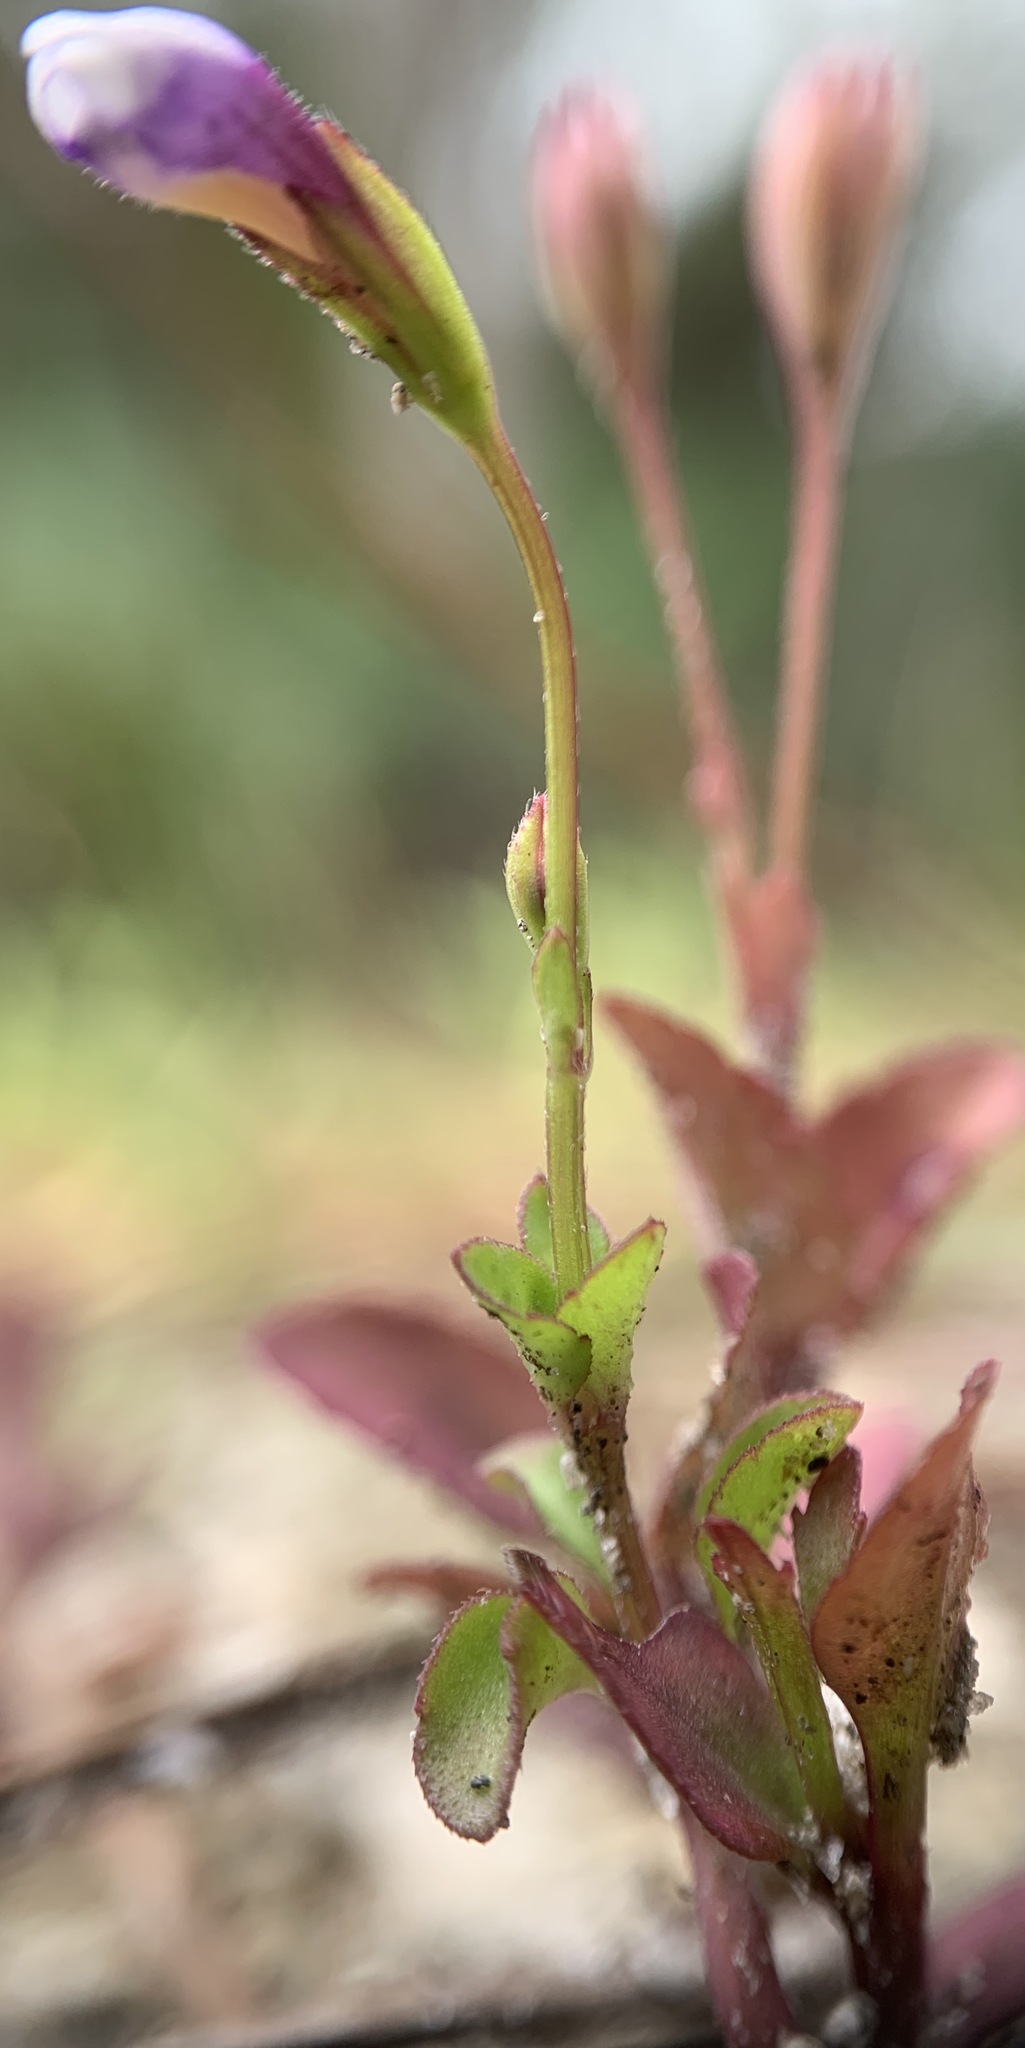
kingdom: Plantae
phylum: Tracheophyta
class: Magnoliopsida
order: Lamiales
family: Linderniaceae
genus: Torenia
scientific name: Torenia crustacea
